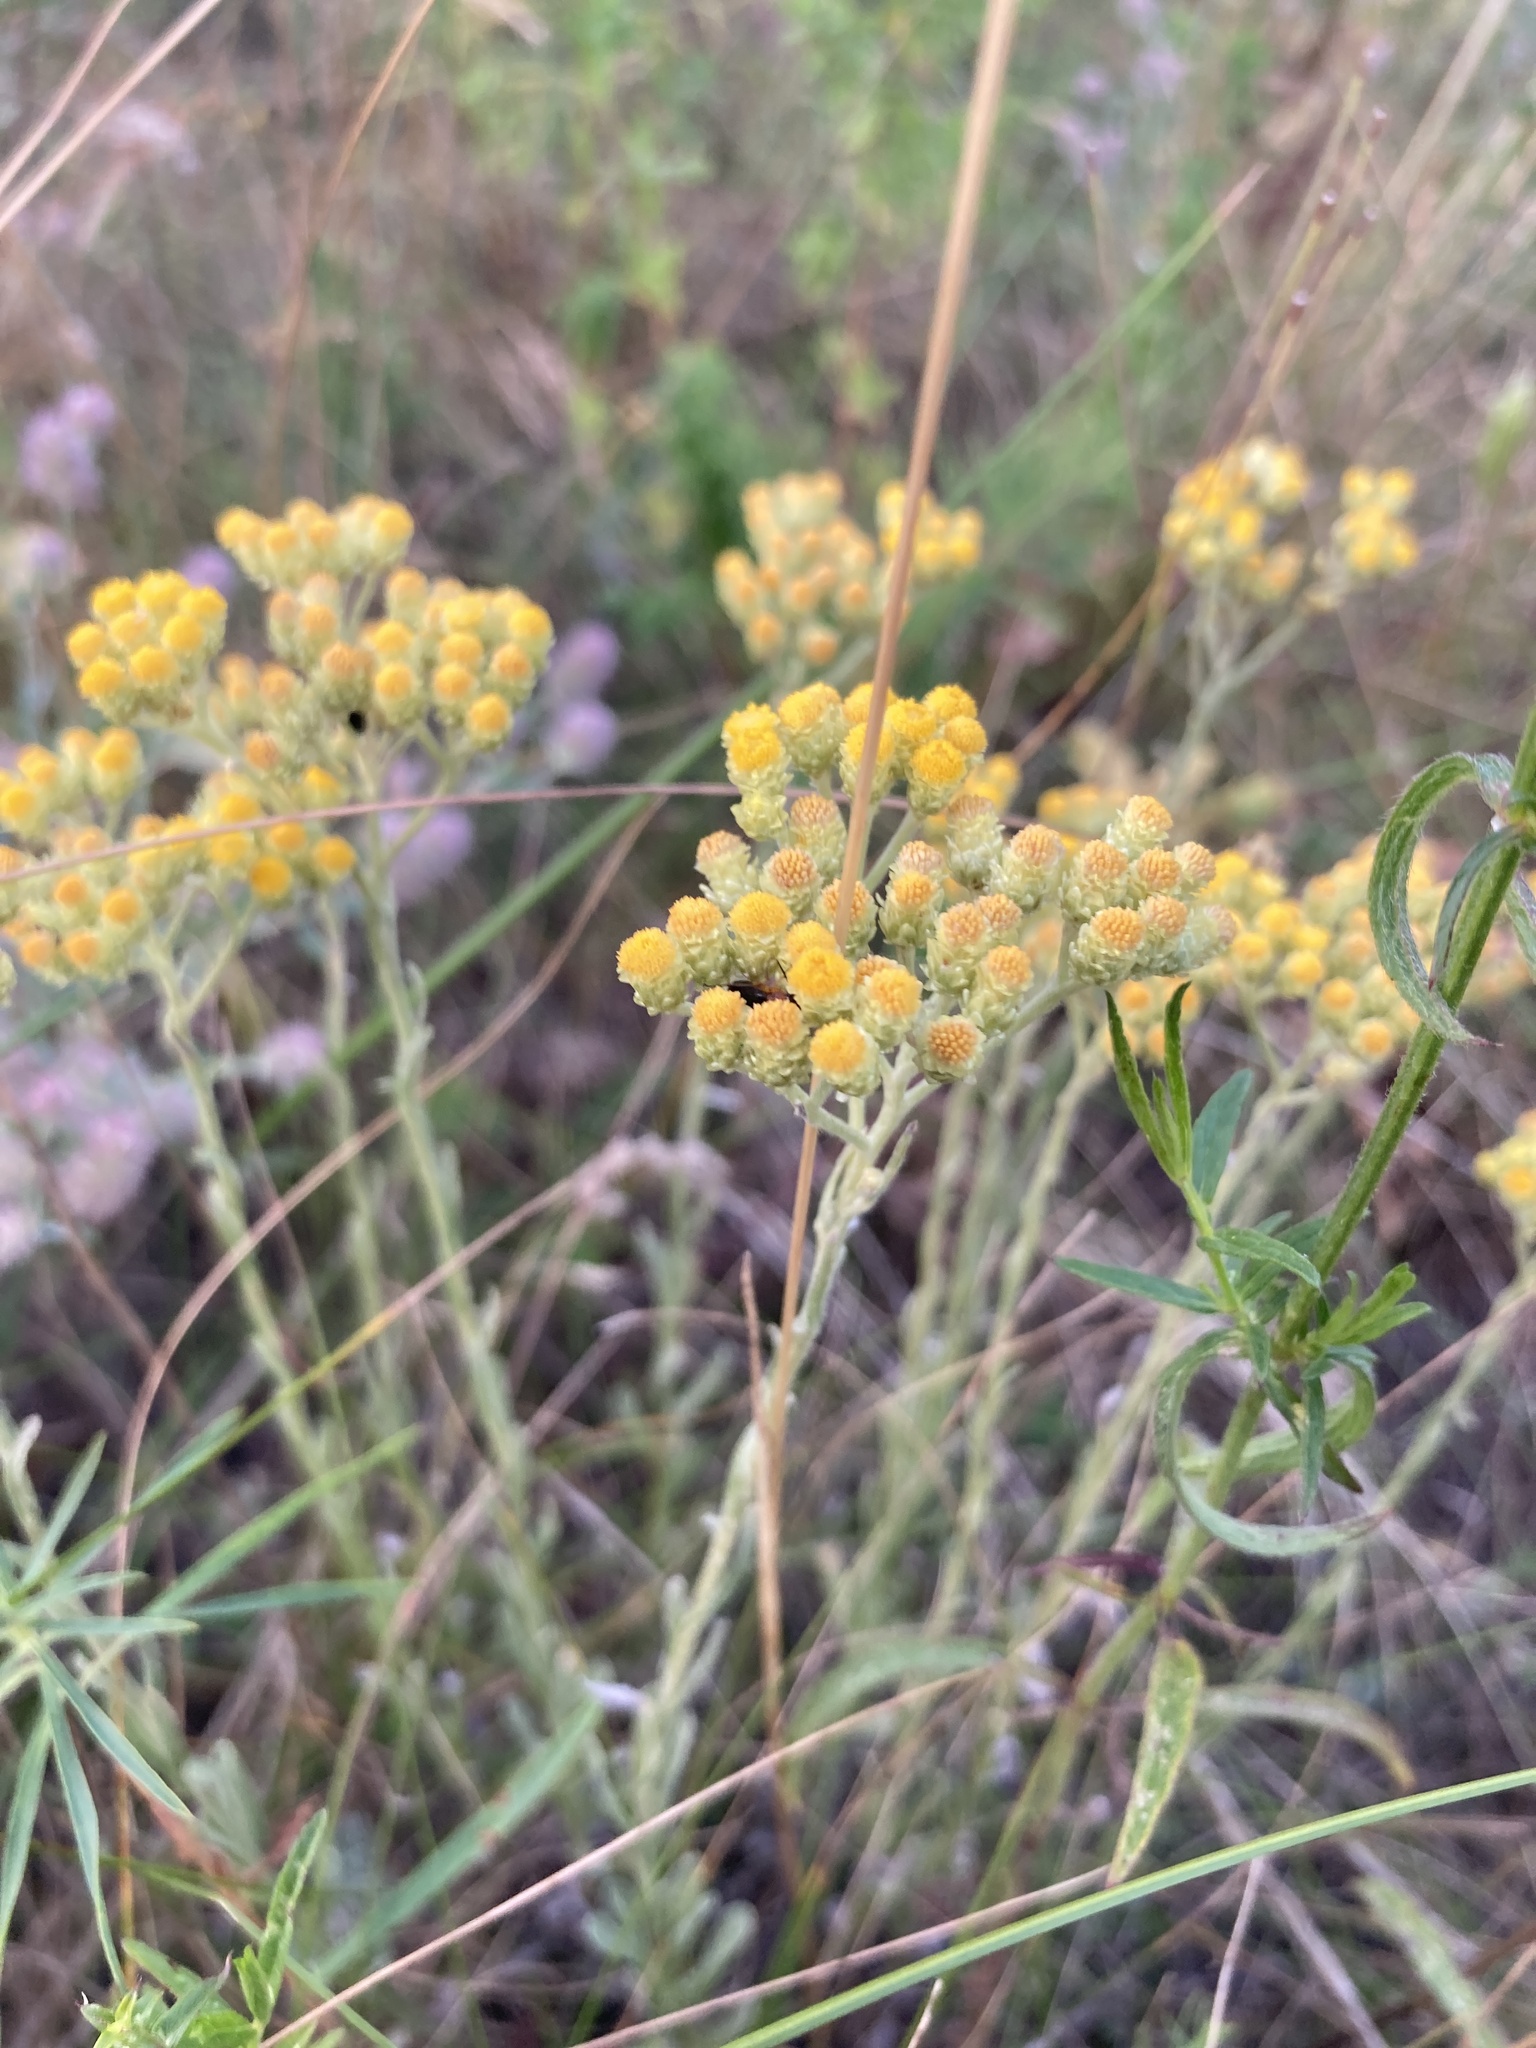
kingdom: Plantae
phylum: Tracheophyta
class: Magnoliopsida
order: Asterales
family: Asteraceae
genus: Helichrysum
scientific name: Helichrysum arenarium
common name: Strawflower
